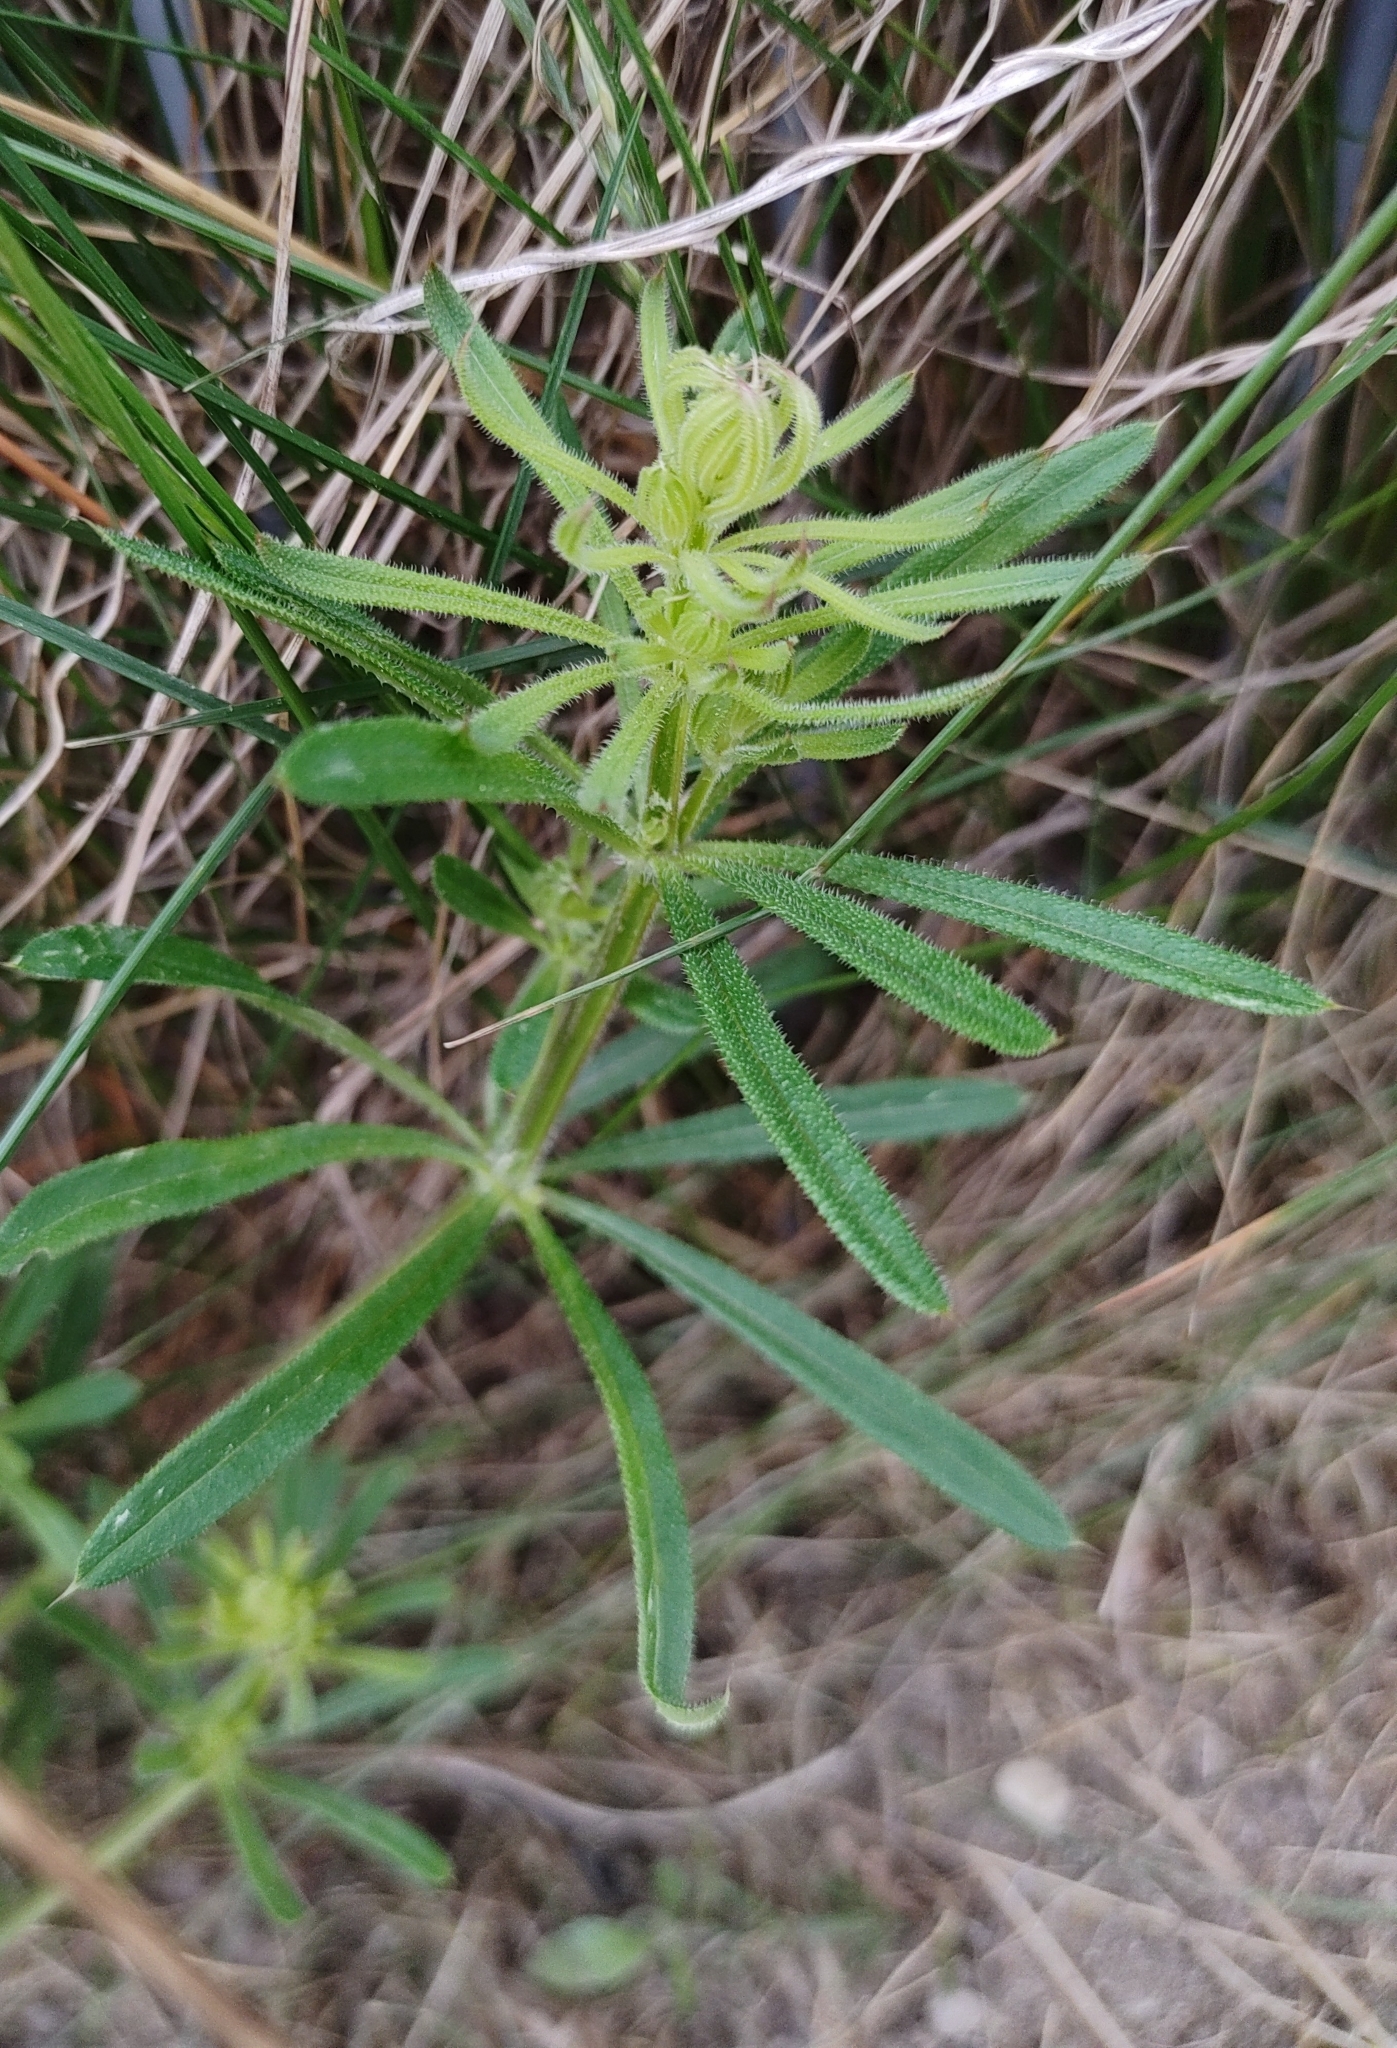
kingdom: Plantae
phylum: Tracheophyta
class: Magnoliopsida
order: Gentianales
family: Rubiaceae
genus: Galium
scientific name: Galium aparine
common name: Cleavers
